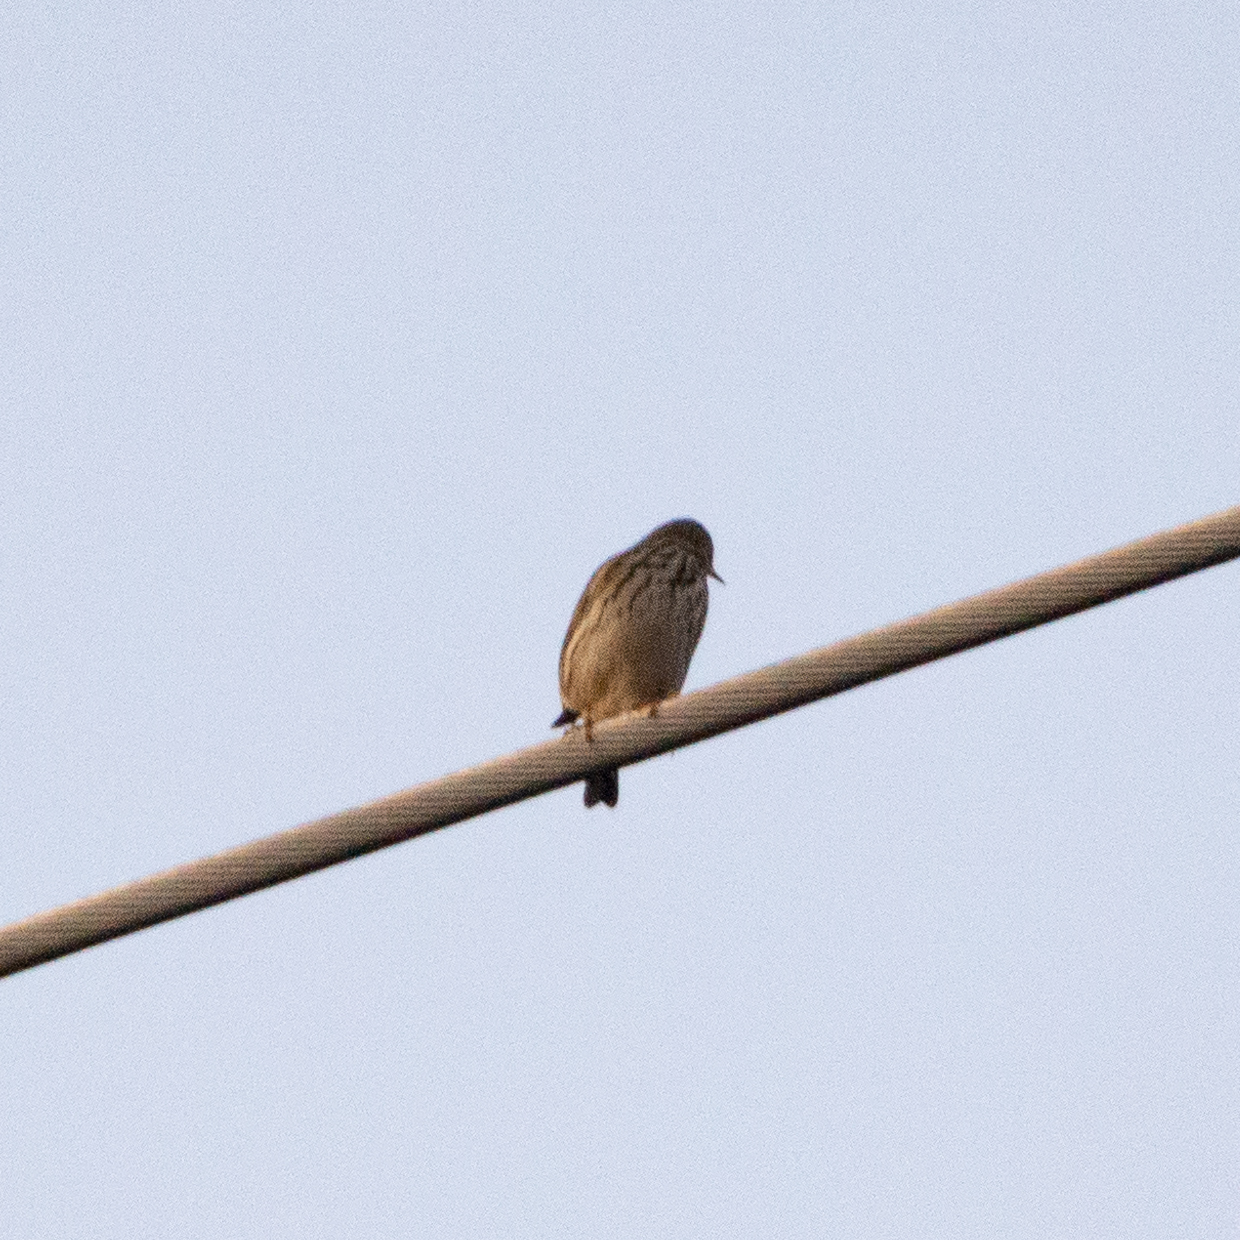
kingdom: Animalia
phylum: Chordata
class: Aves
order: Passeriformes
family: Motacillidae
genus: Anthus
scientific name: Anthus pratensis
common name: Meadow pipit
